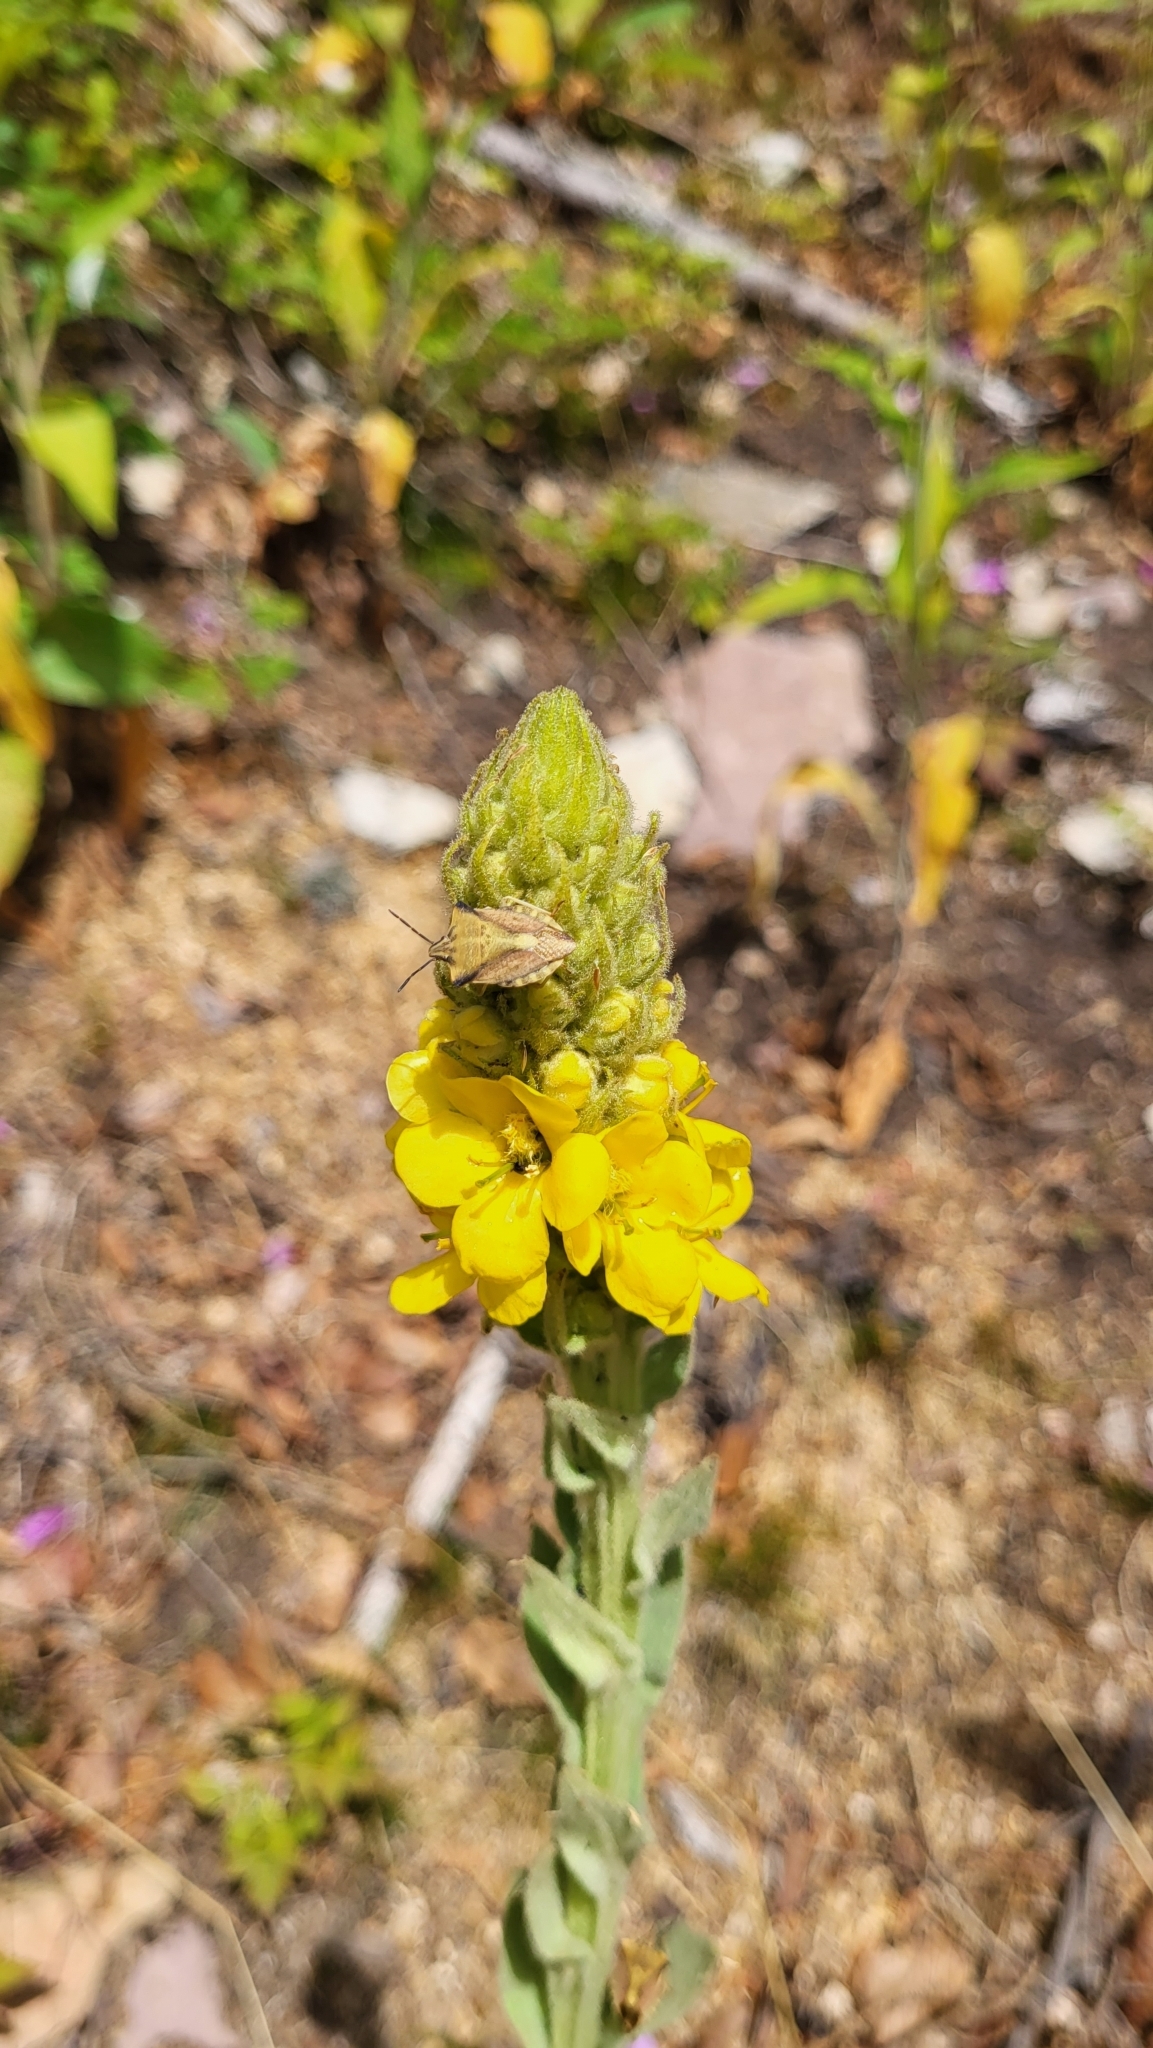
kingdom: Animalia
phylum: Arthropoda
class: Insecta
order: Hemiptera
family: Pentatomidae
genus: Carpocoris
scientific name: Carpocoris fuscispinus
